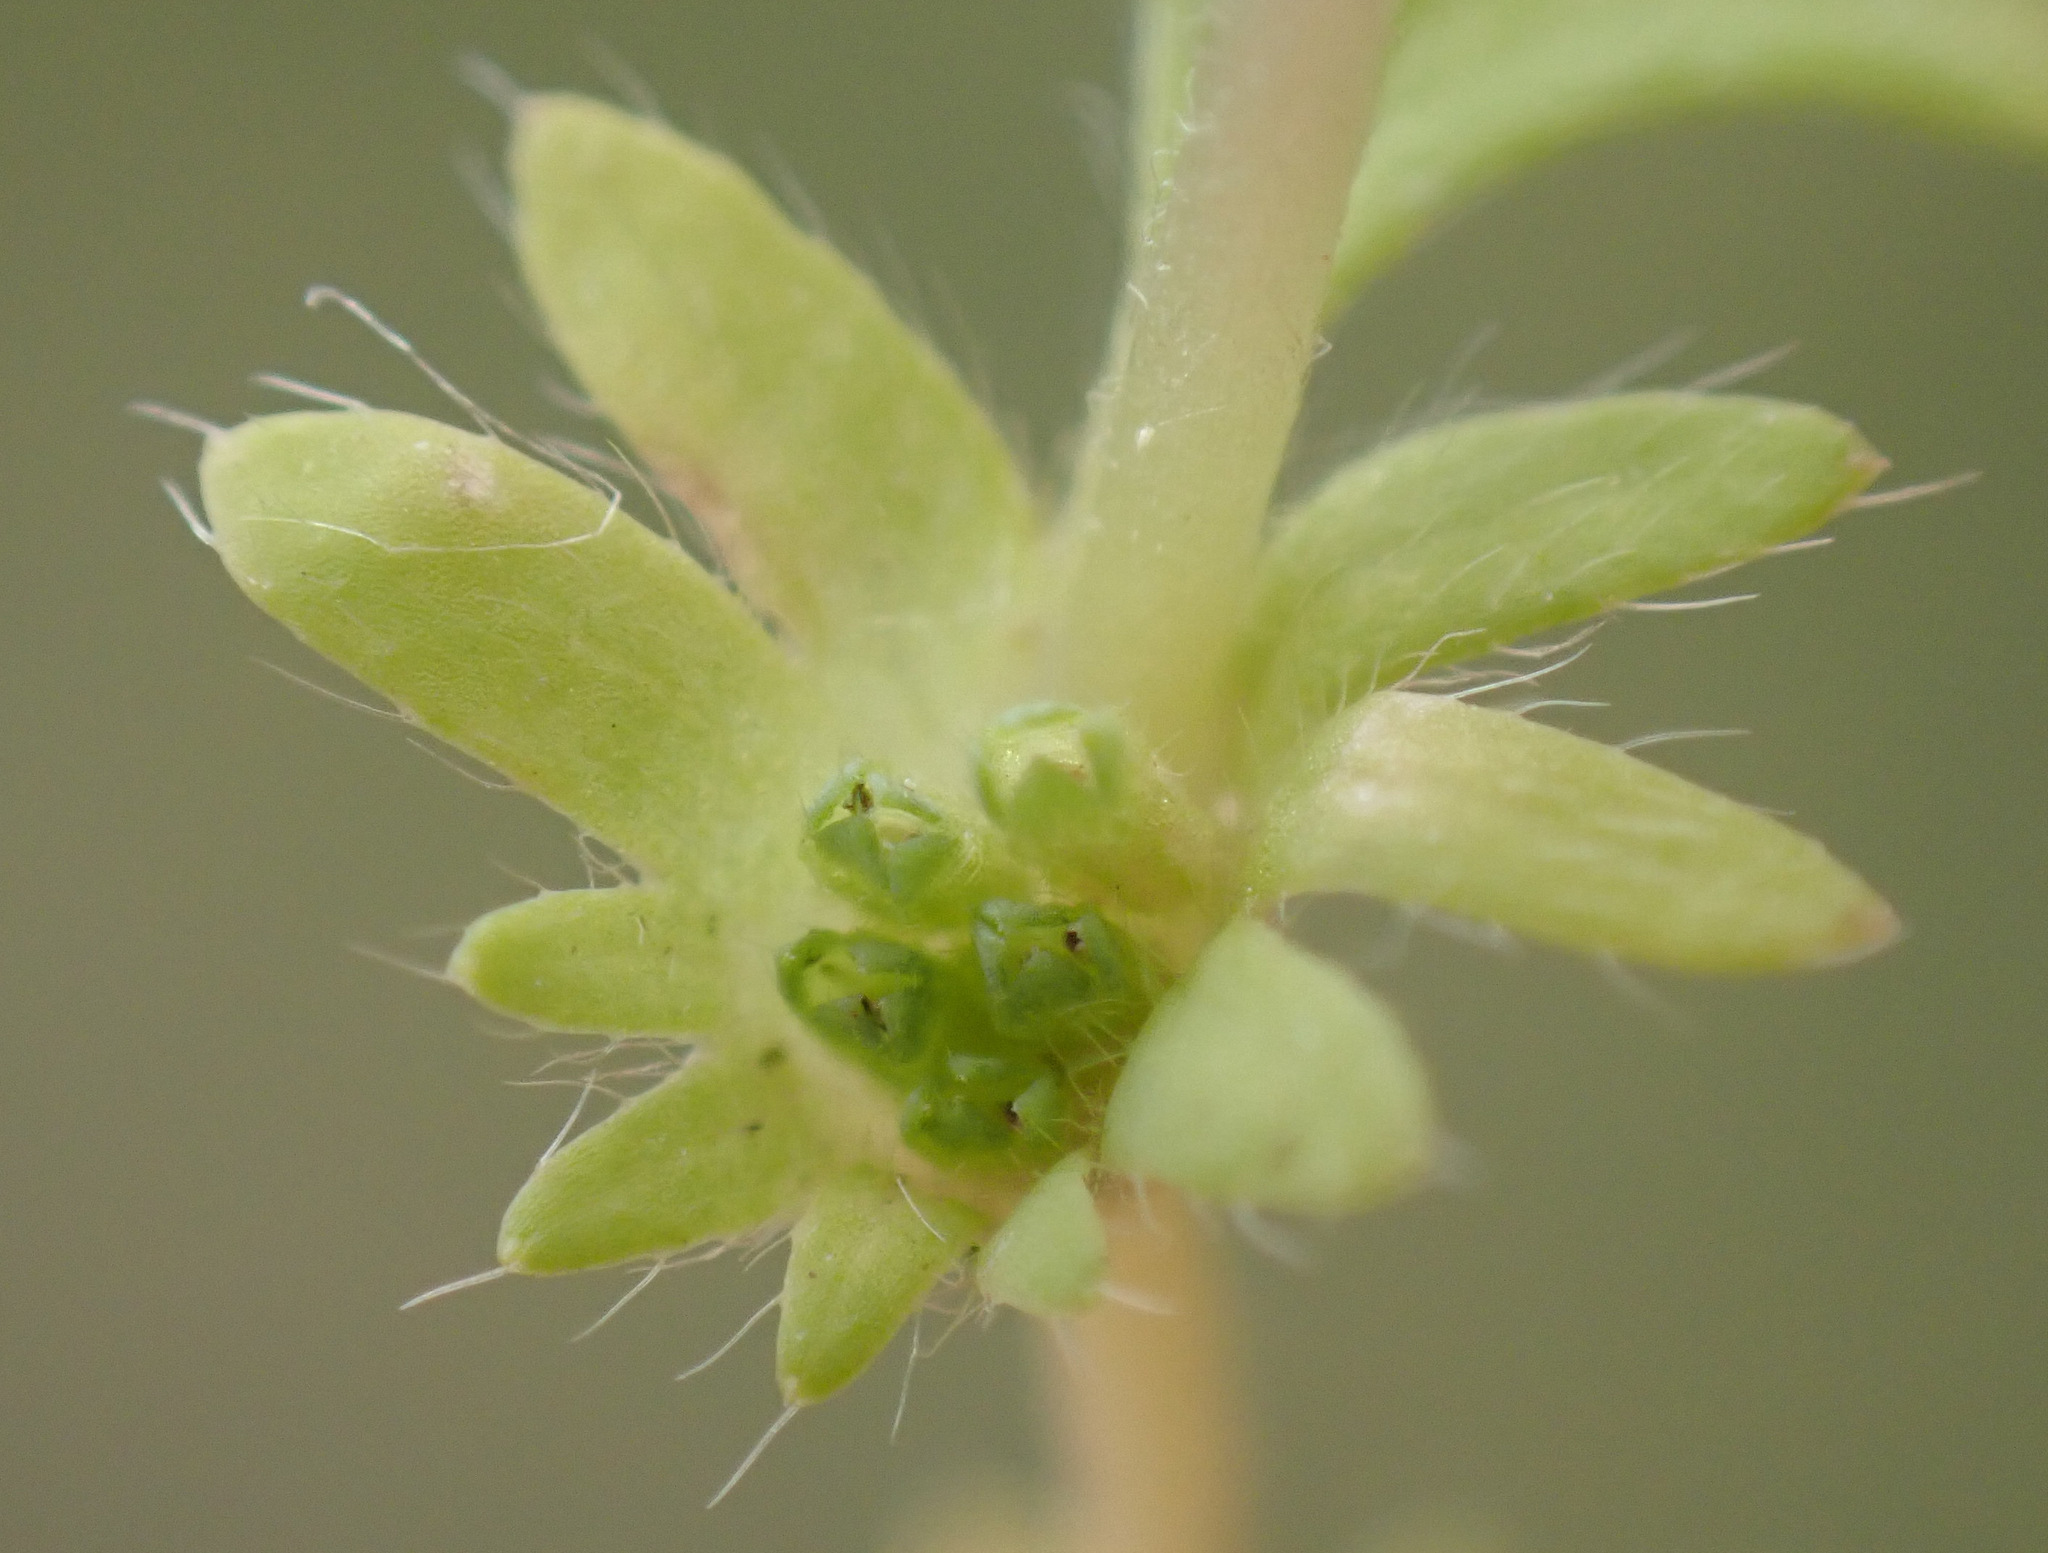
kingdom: Plantae
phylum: Tracheophyta
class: Magnoliopsida
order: Rosales
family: Rosaceae
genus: Aphanes
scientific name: Aphanes australis
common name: Slender parsley-piert
